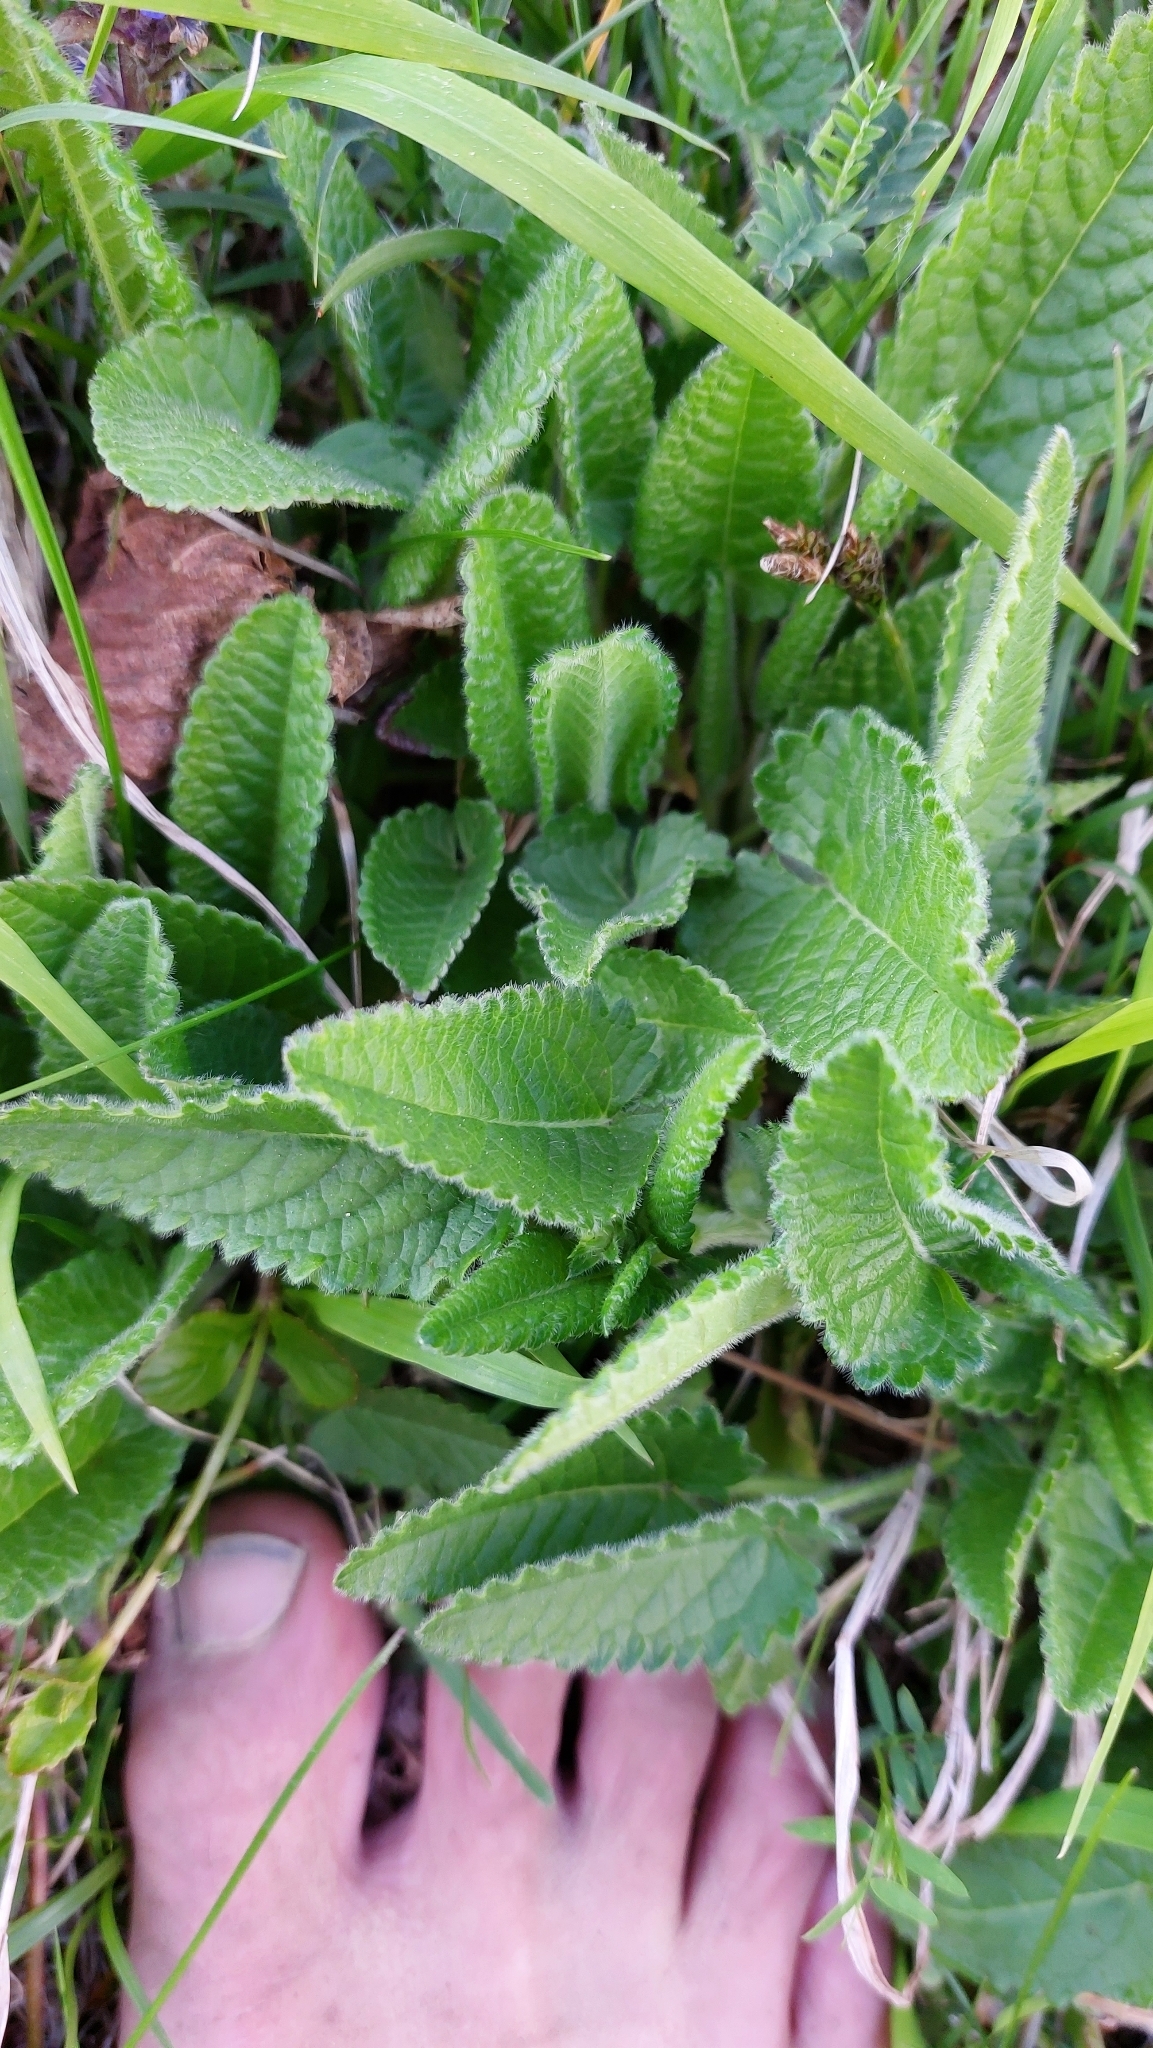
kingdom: Plantae
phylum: Tracheophyta
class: Magnoliopsida
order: Lamiales
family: Lamiaceae
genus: Betonica
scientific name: Betonica officinalis
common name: Bishop's-wort
